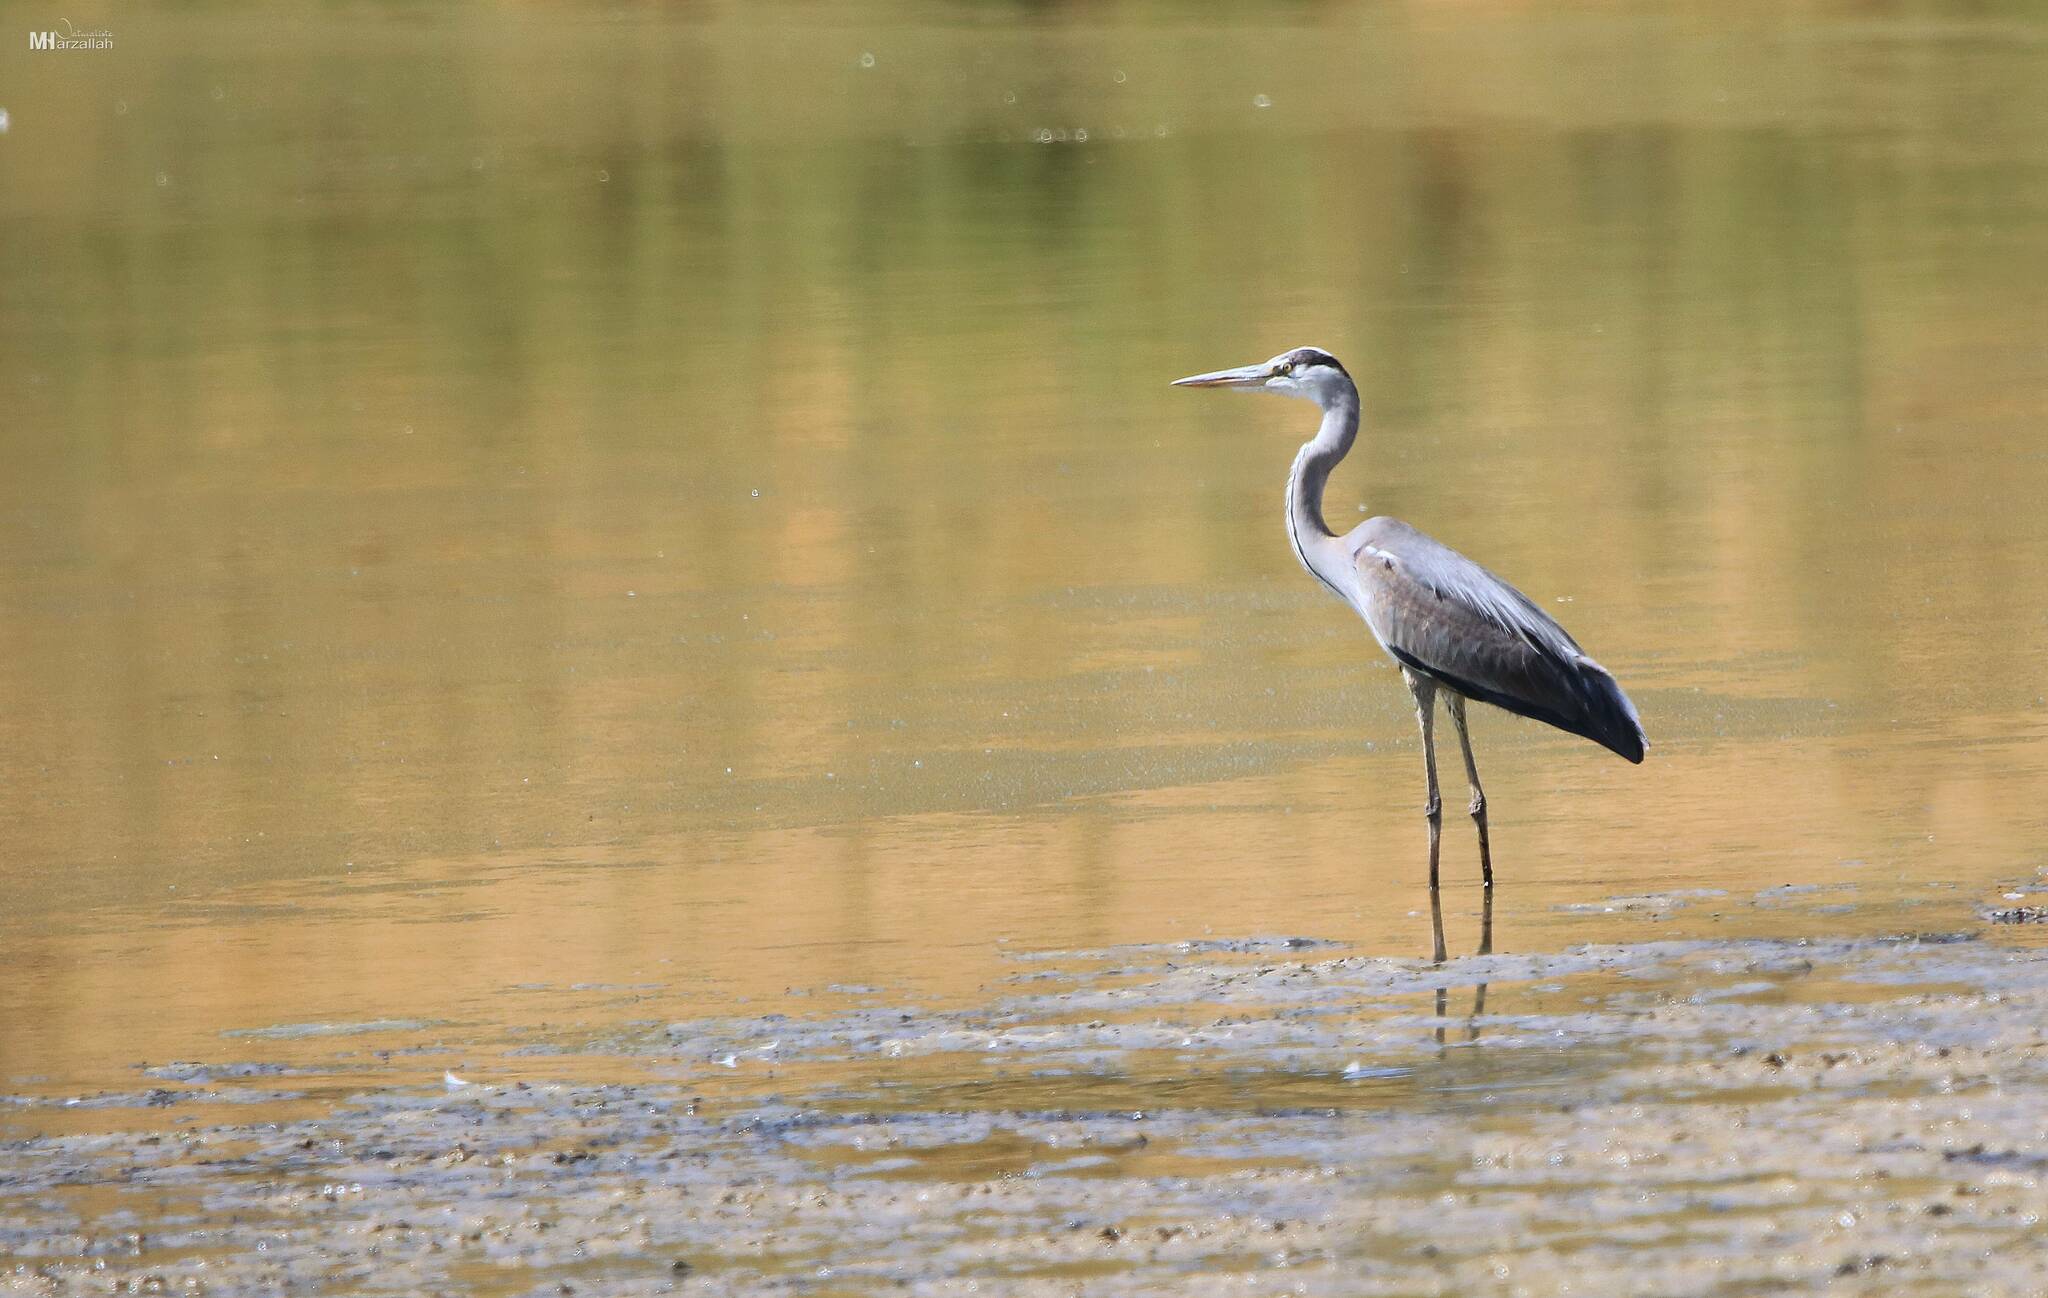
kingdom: Animalia
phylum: Chordata
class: Aves
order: Pelecaniformes
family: Ardeidae
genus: Ardea
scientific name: Ardea cinerea
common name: Grey heron
